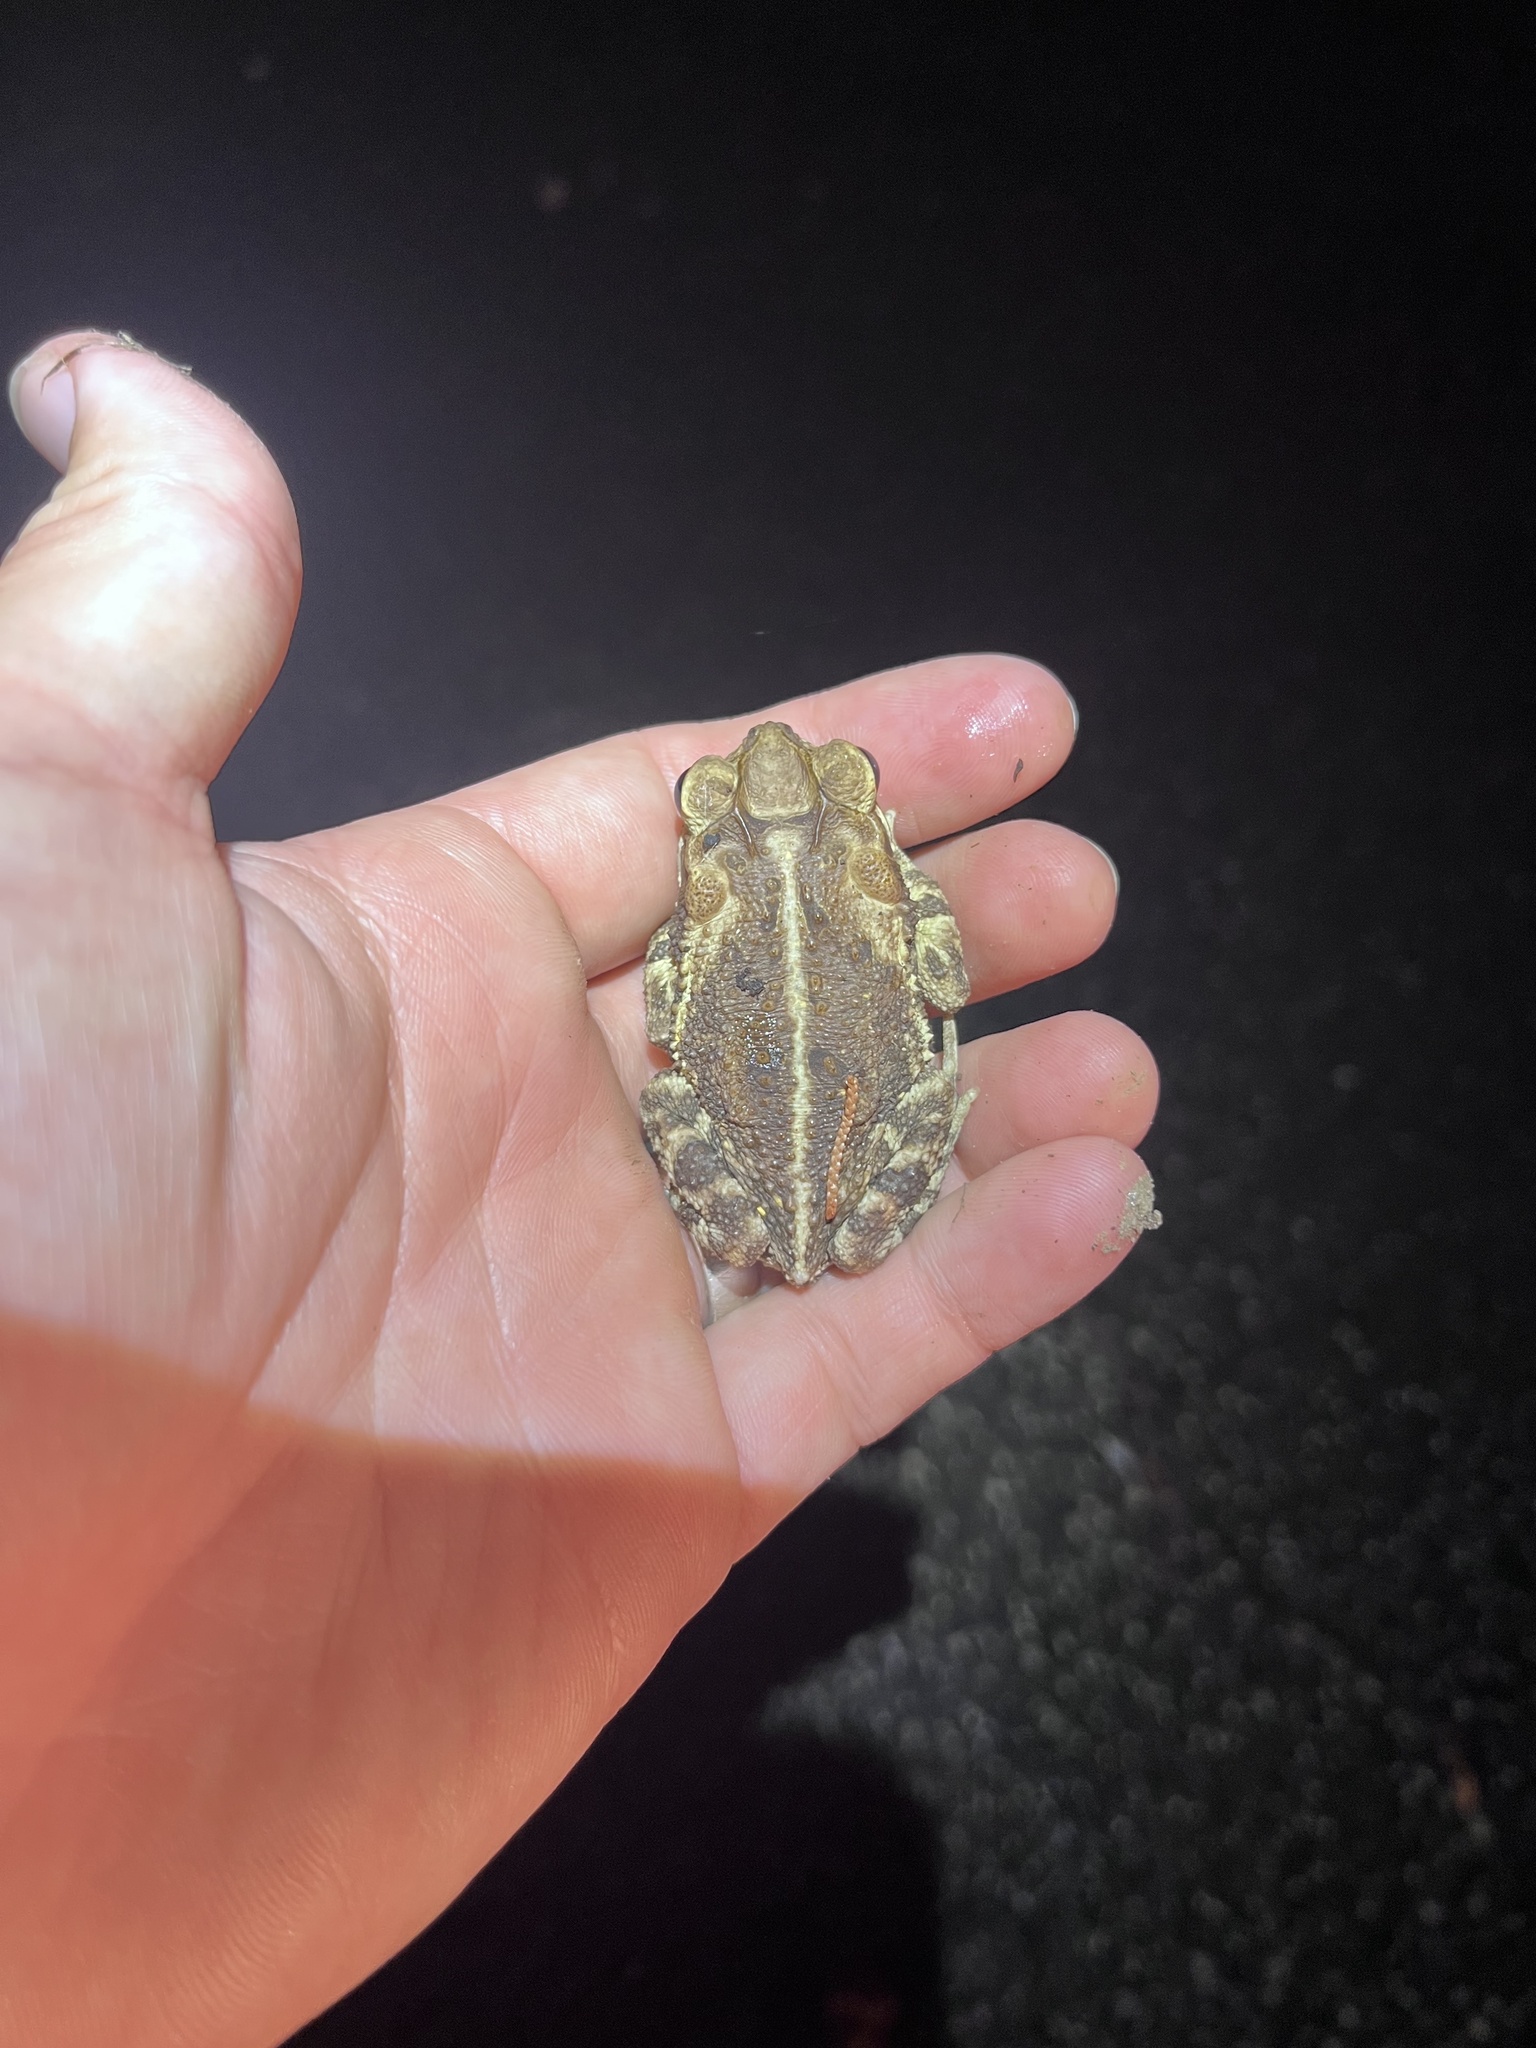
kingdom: Animalia
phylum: Chordata
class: Amphibia
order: Anura
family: Bufonidae
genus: Incilius
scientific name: Incilius nebulifer
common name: Gulf coast toad
